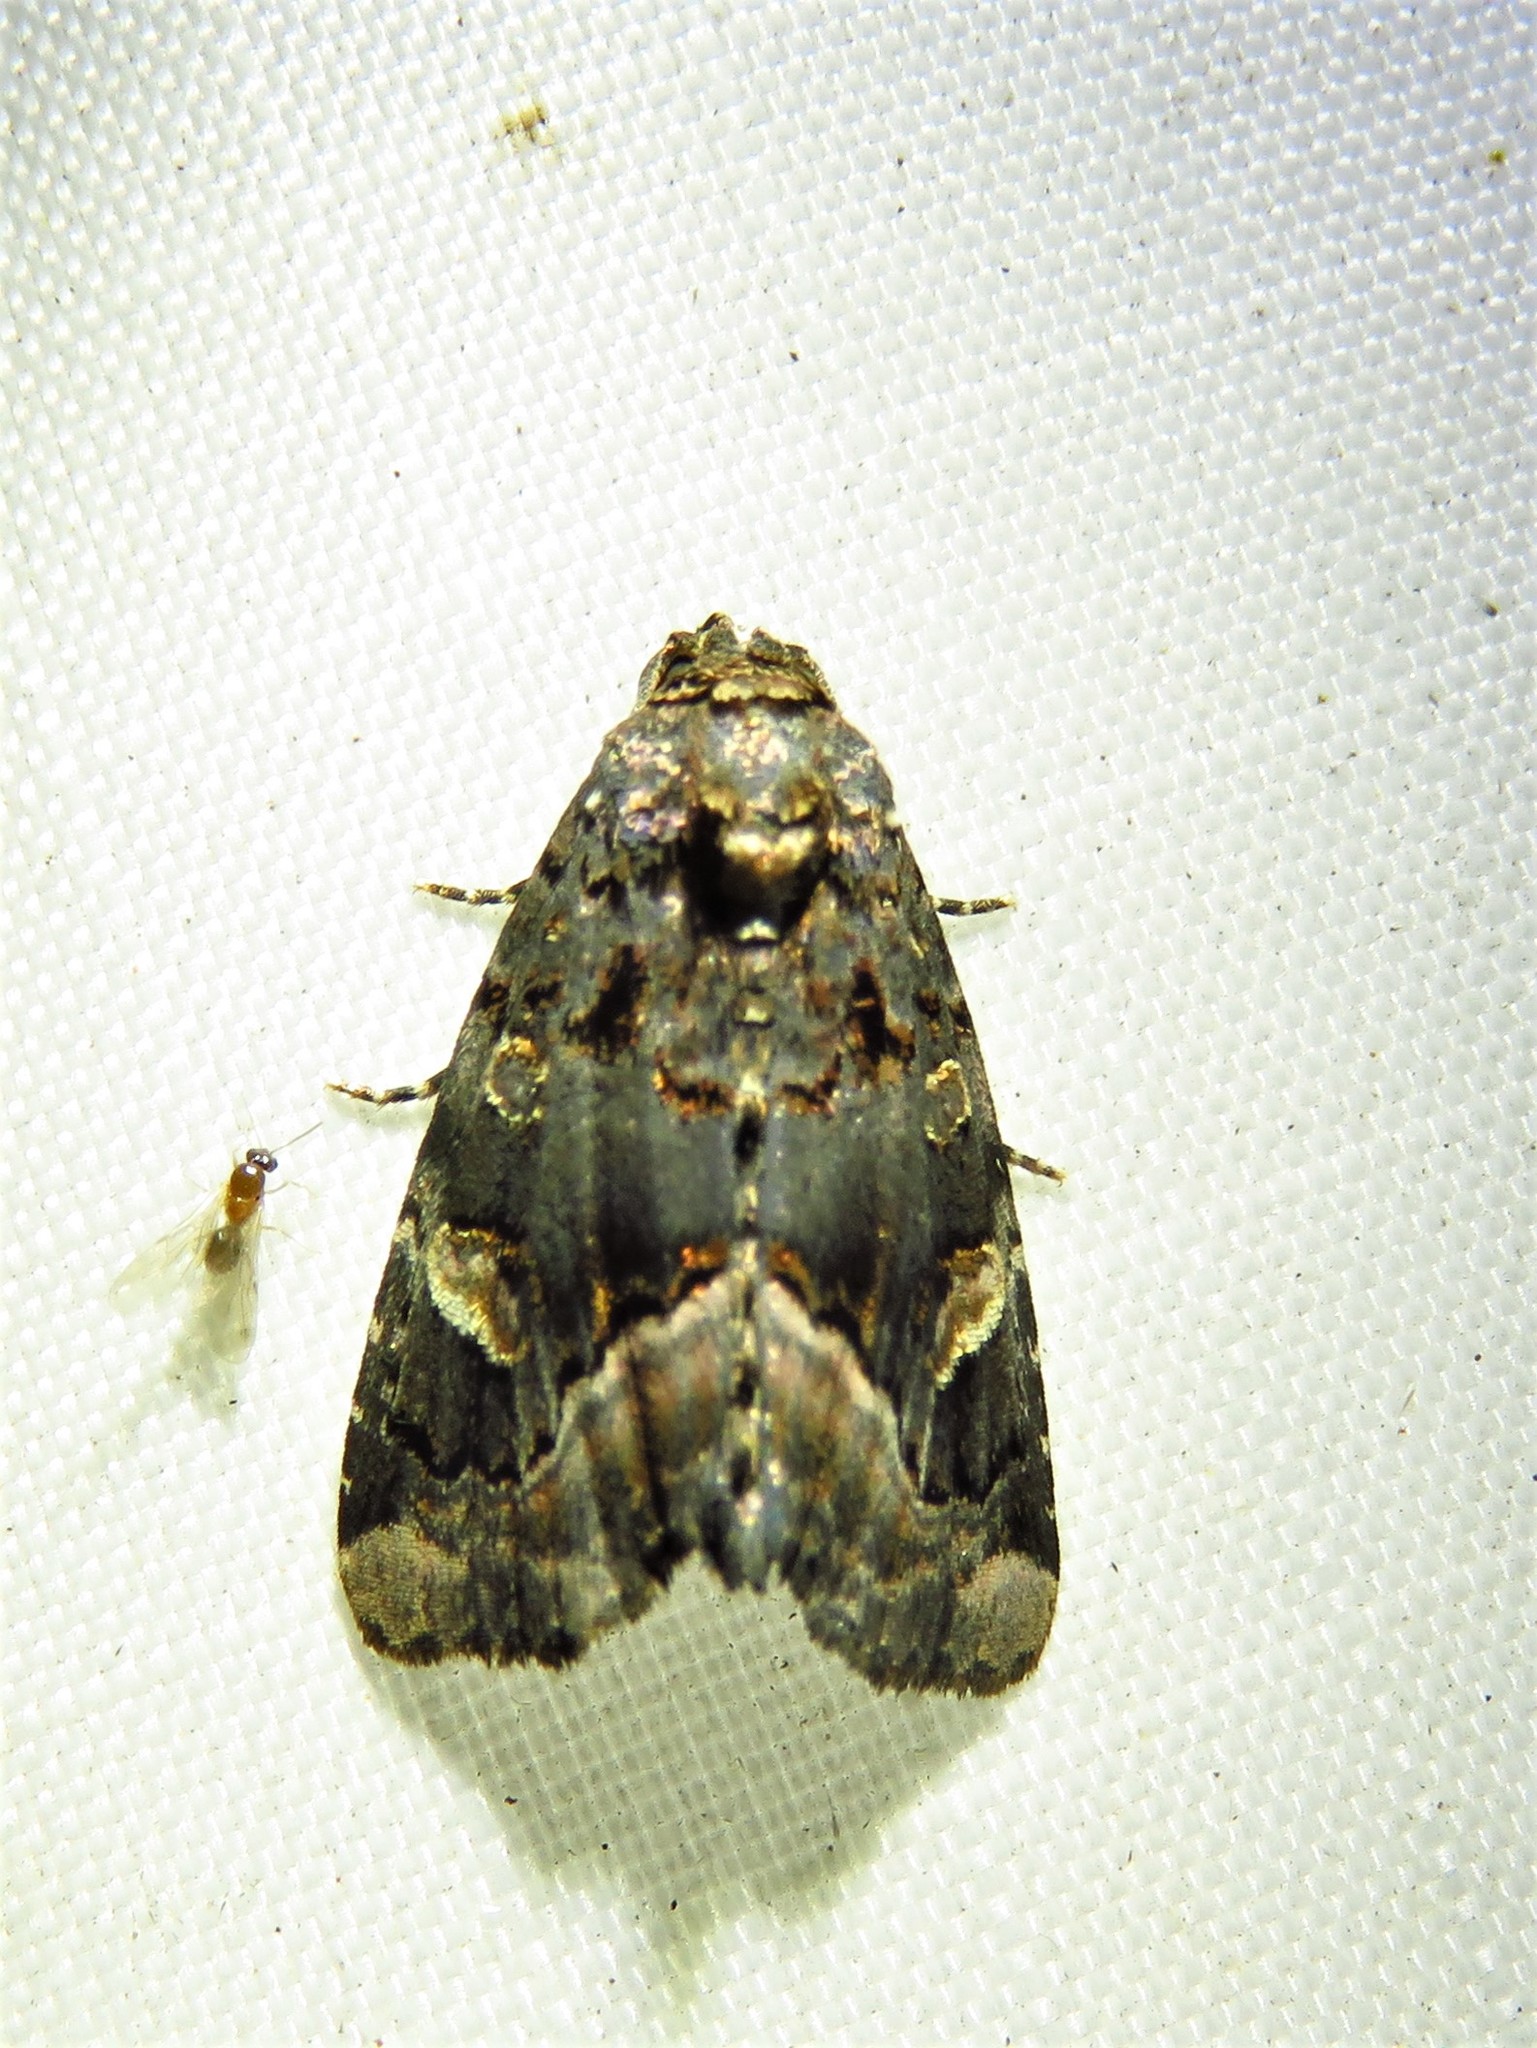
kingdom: Animalia
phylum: Arthropoda
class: Insecta
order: Lepidoptera
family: Noctuidae
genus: Homophoberia
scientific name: Homophoberia apicosa
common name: Black wedge-spot
